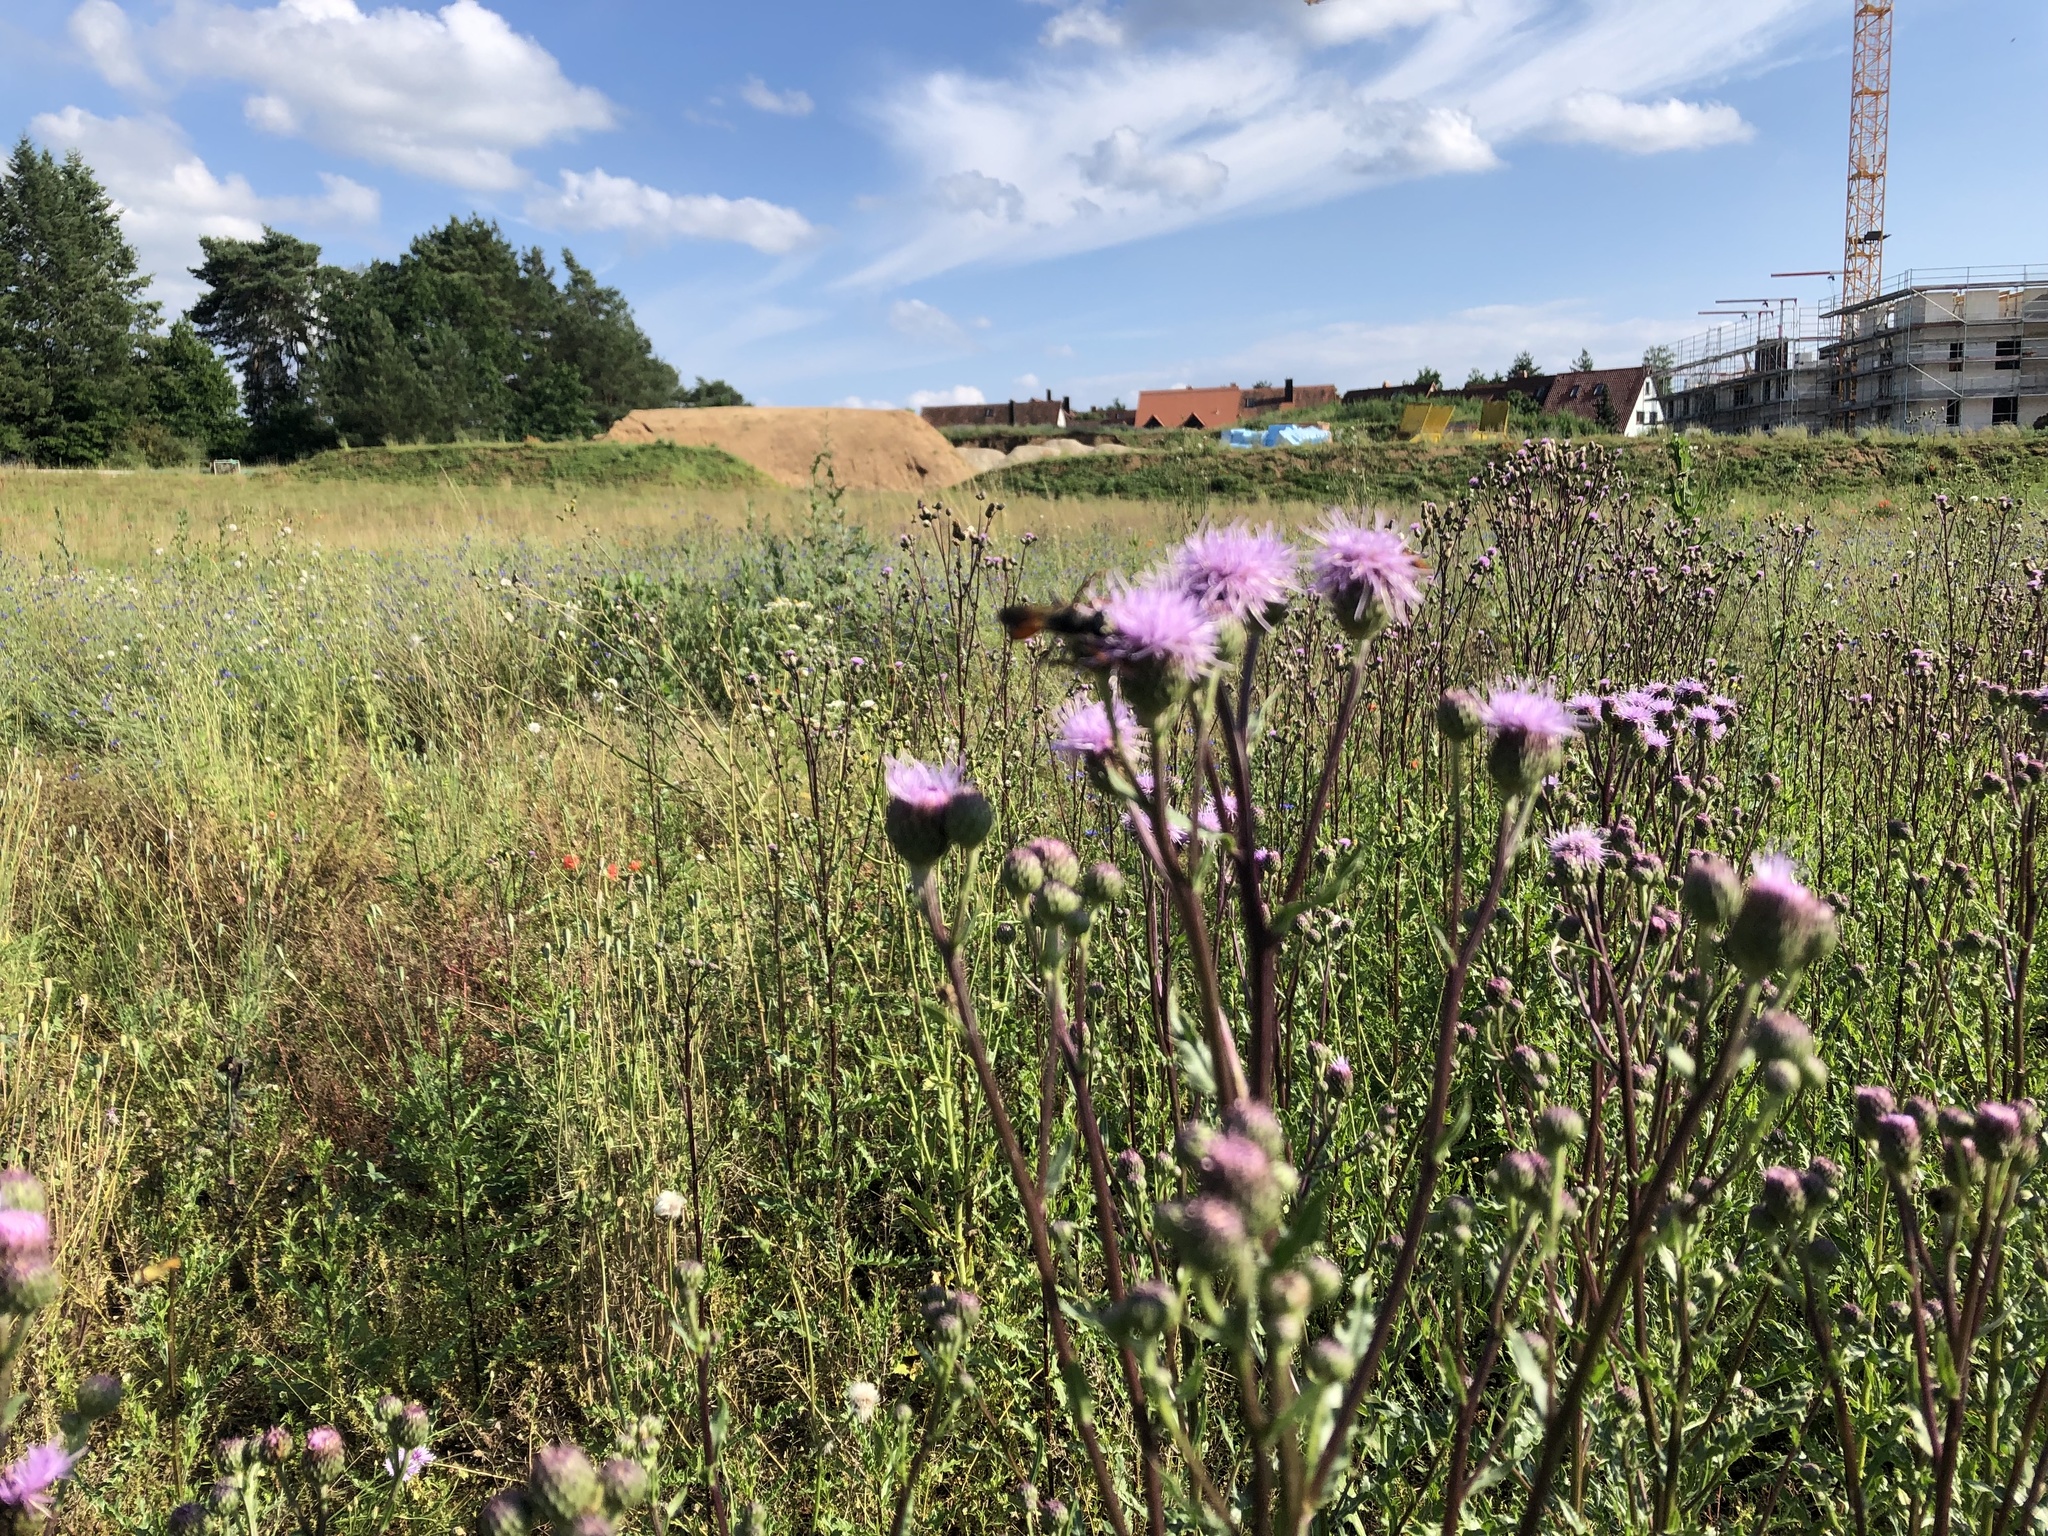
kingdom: Plantae
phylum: Tracheophyta
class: Magnoliopsida
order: Asterales
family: Asteraceae
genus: Cirsium
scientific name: Cirsium arvense
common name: Creeping thistle
